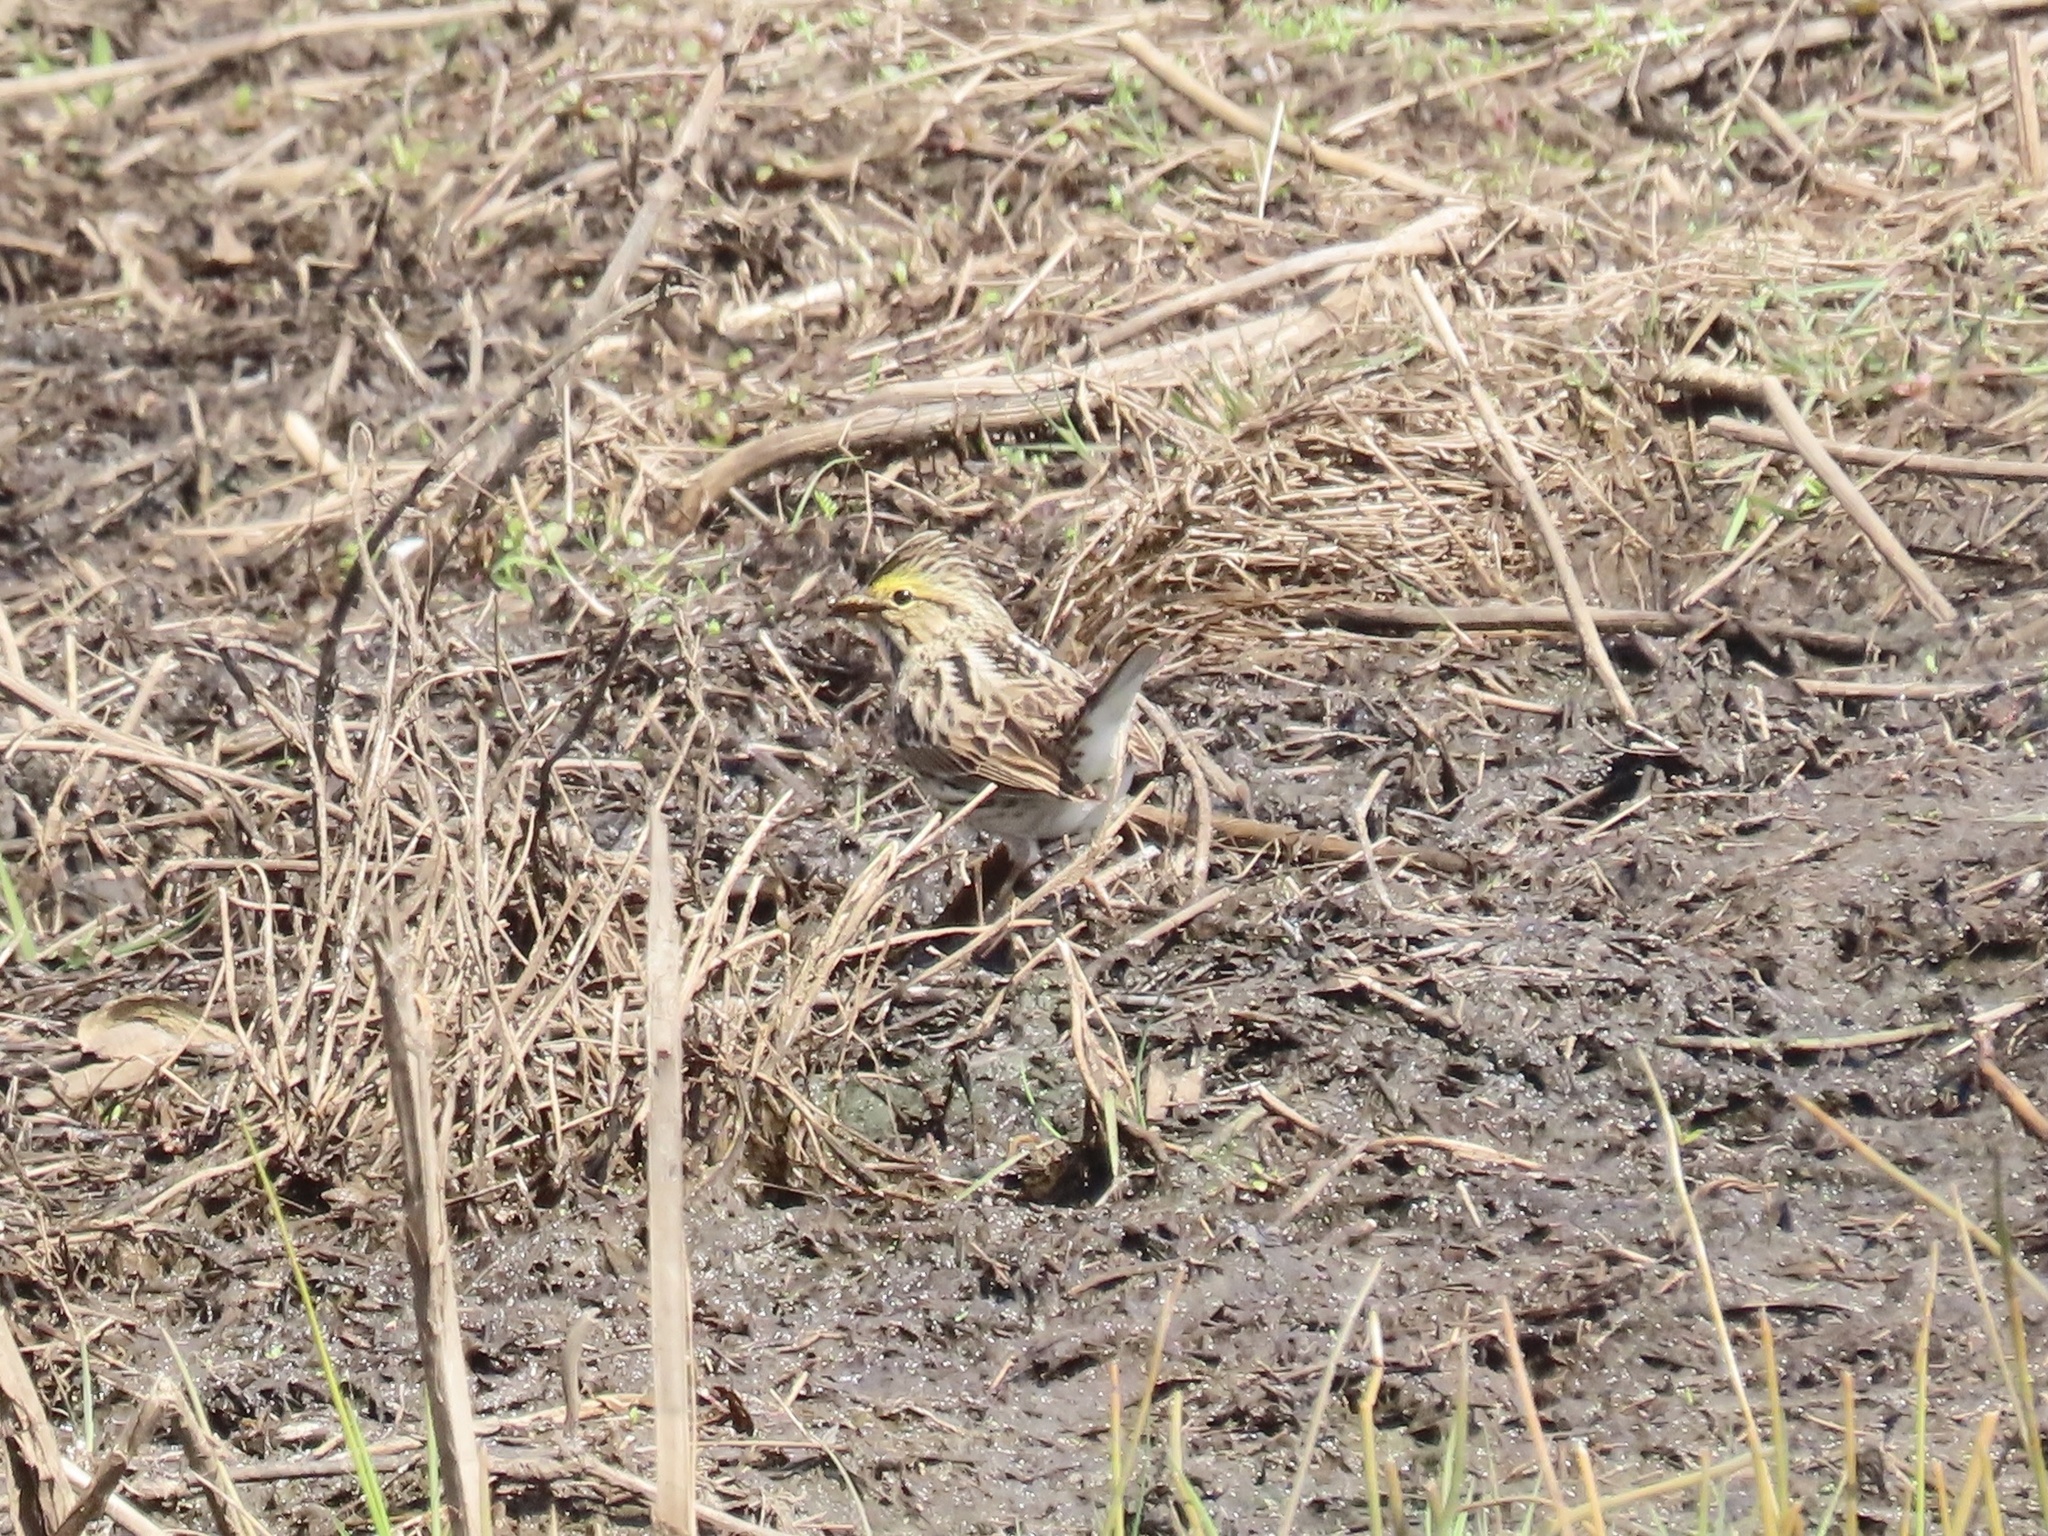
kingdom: Animalia
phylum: Chordata
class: Aves
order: Passeriformes
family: Passerellidae
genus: Passerculus
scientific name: Passerculus sandwichensis
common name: Savannah sparrow
